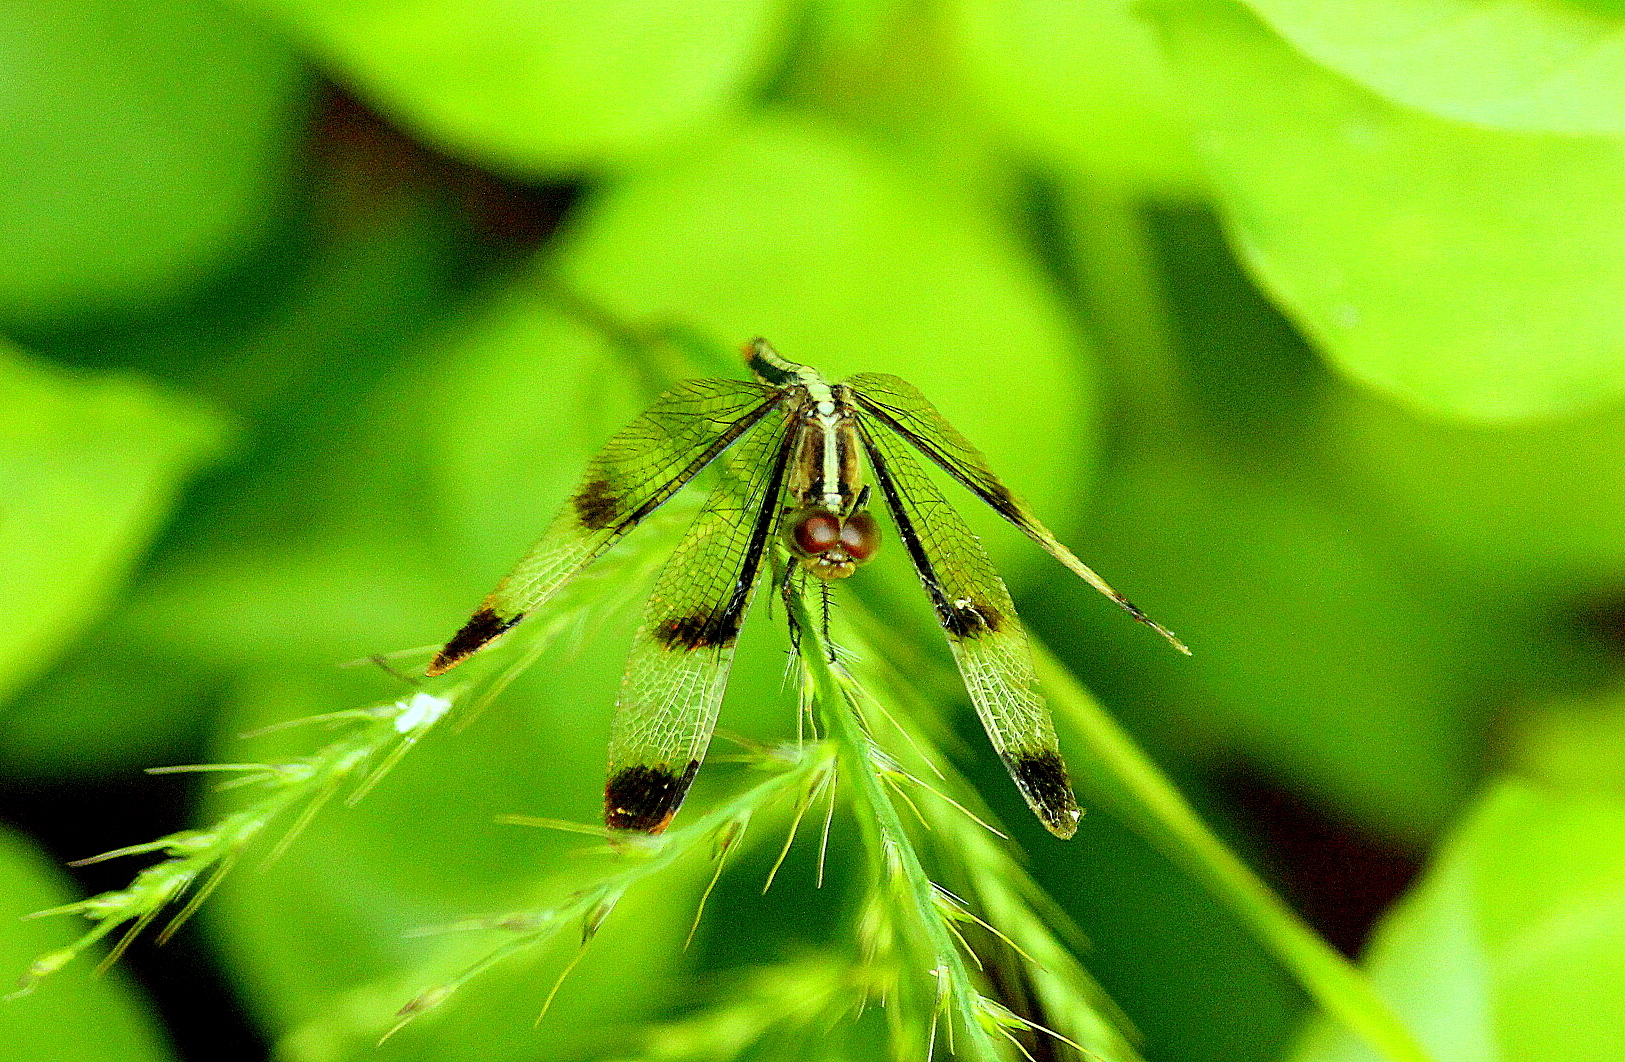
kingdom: Animalia
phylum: Arthropoda
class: Insecta
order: Odonata
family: Libellulidae
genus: Neurothemis
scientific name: Neurothemis tullia
